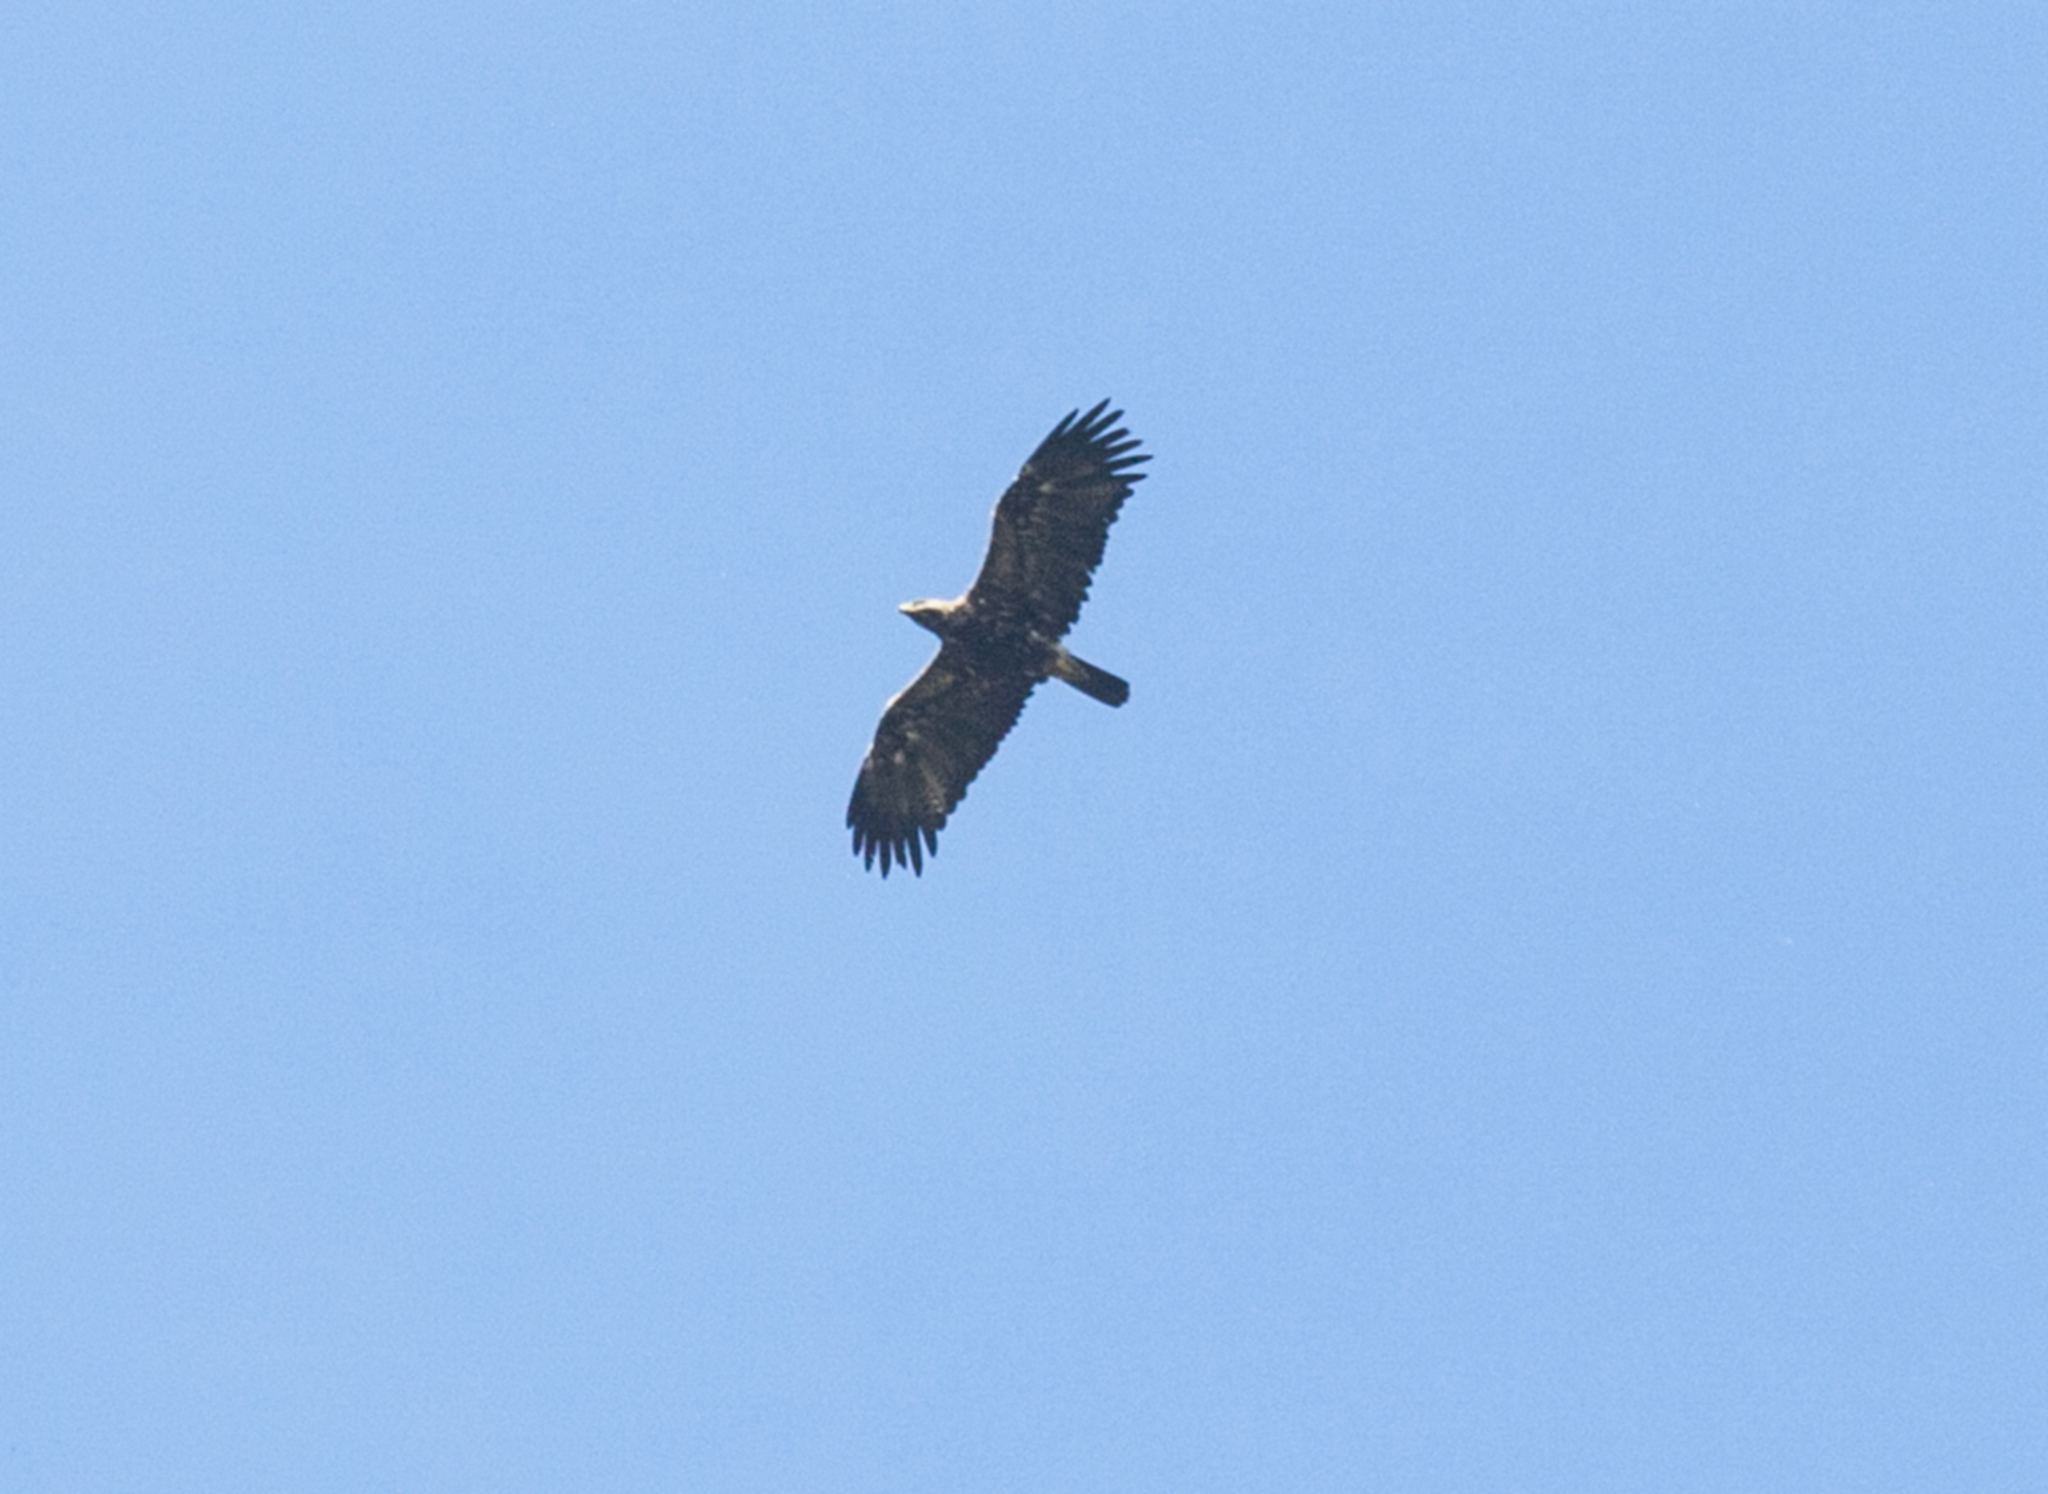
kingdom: Animalia
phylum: Chordata
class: Aves
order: Accipitriformes
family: Accipitridae
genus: Aquila
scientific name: Aquila heliaca
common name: Eastern imperial eagle
